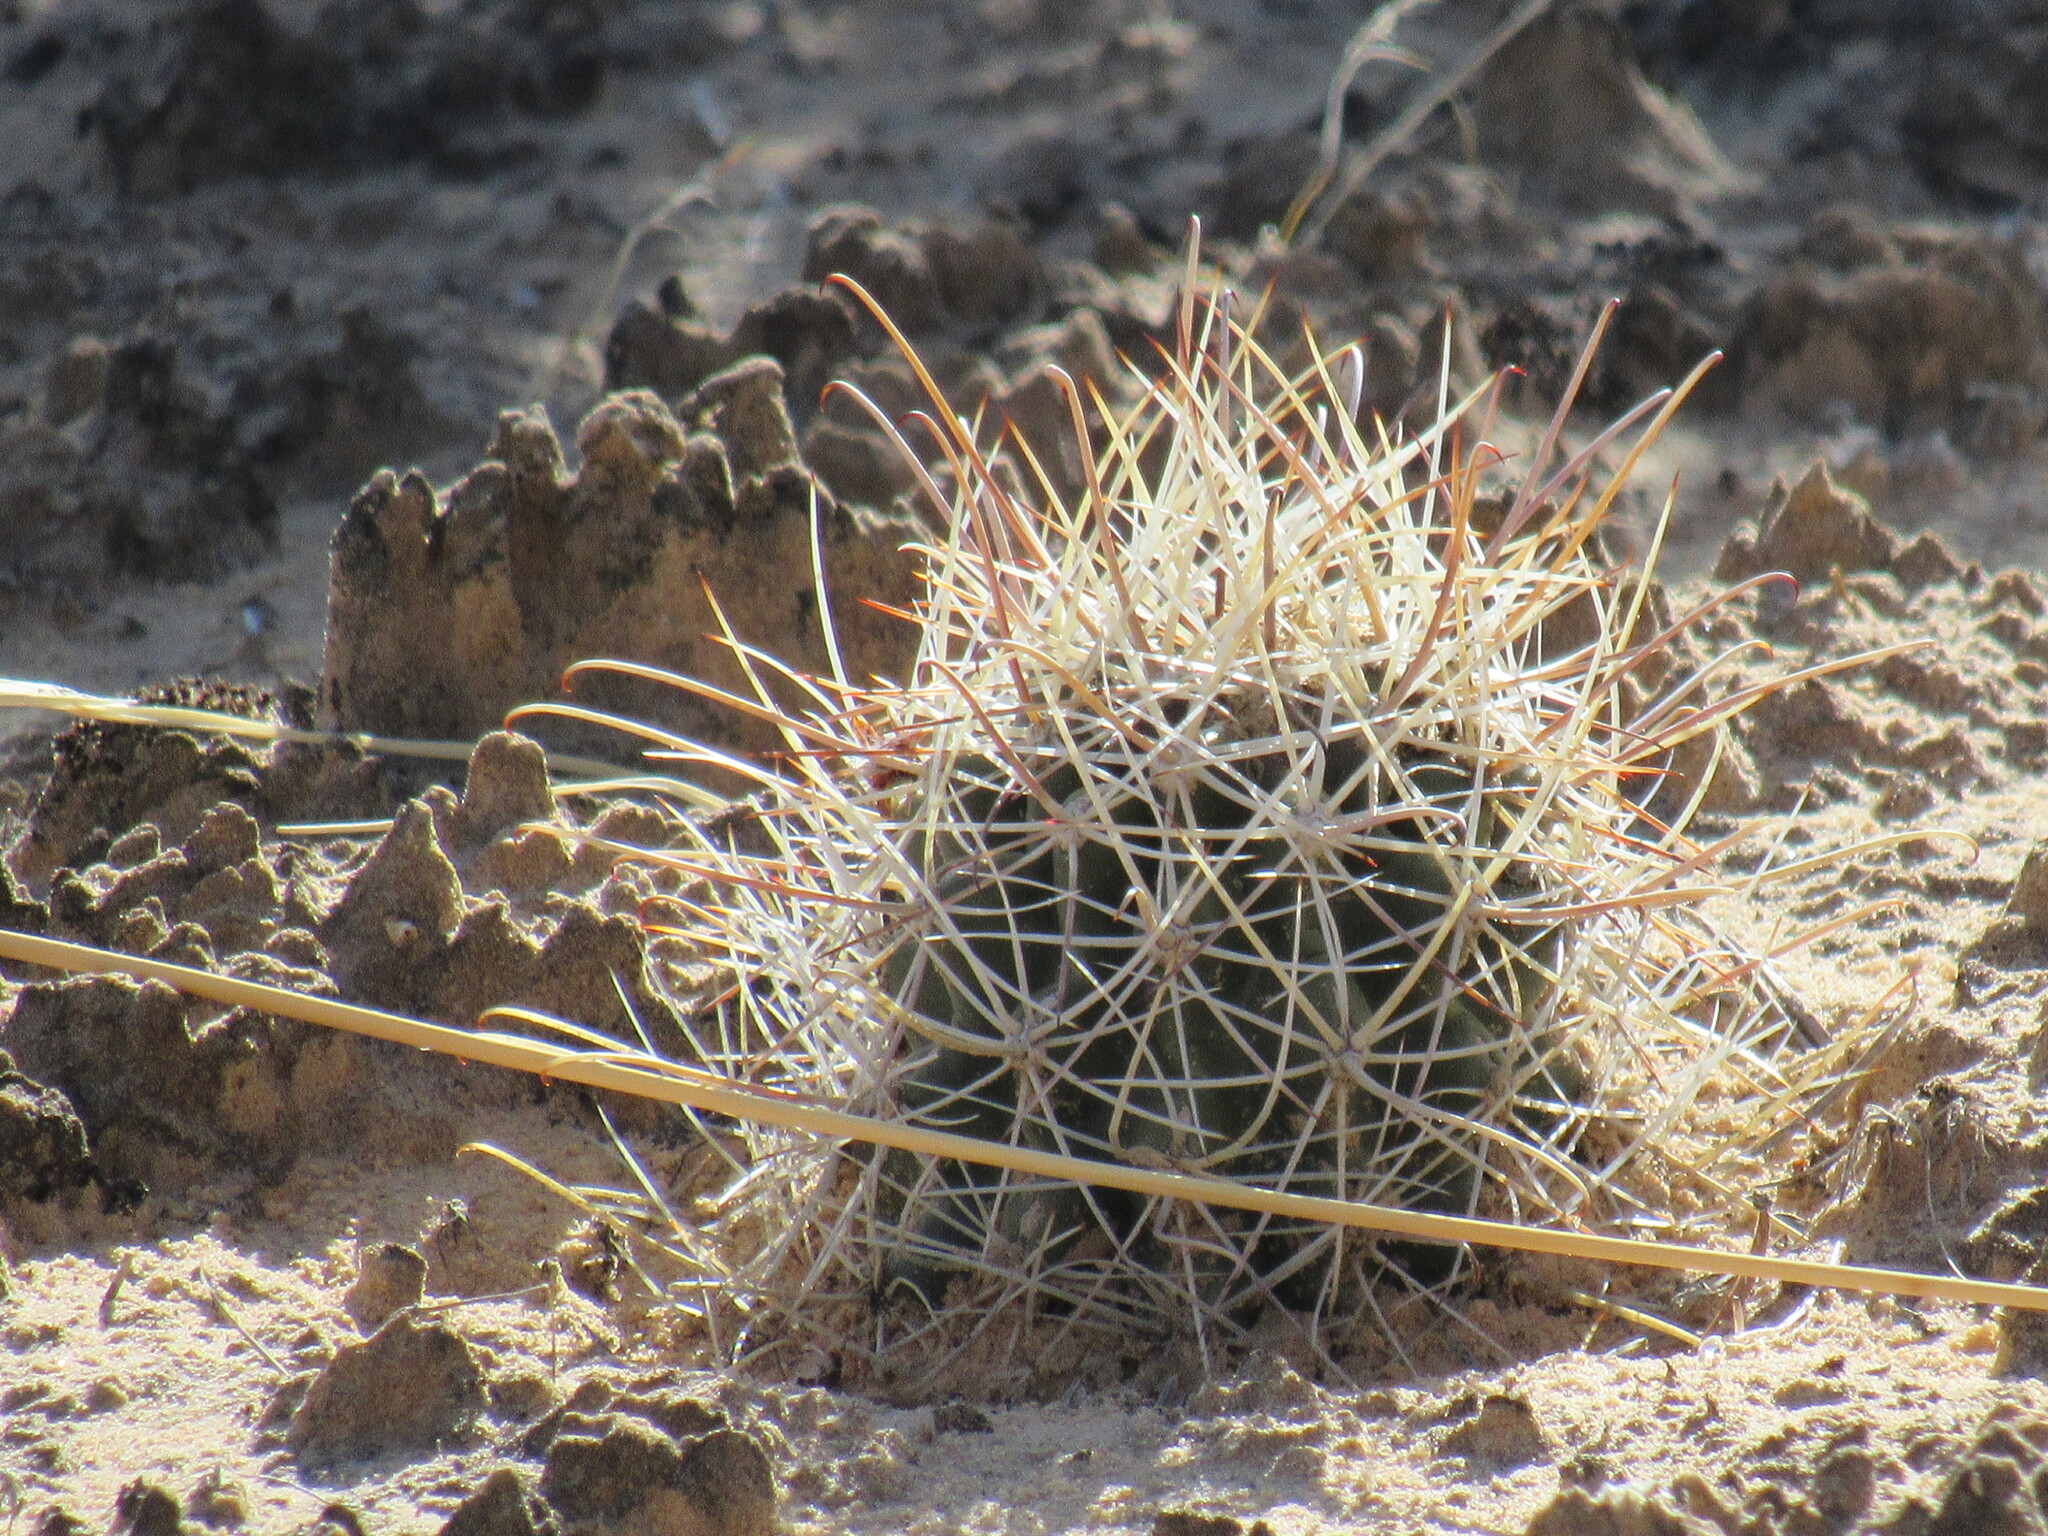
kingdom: Plantae
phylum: Tracheophyta
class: Magnoliopsida
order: Caryophyllales
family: Cactaceae
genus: Sclerocactus
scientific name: Sclerocactus parviflorus
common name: Small-flower fishhook cactus
